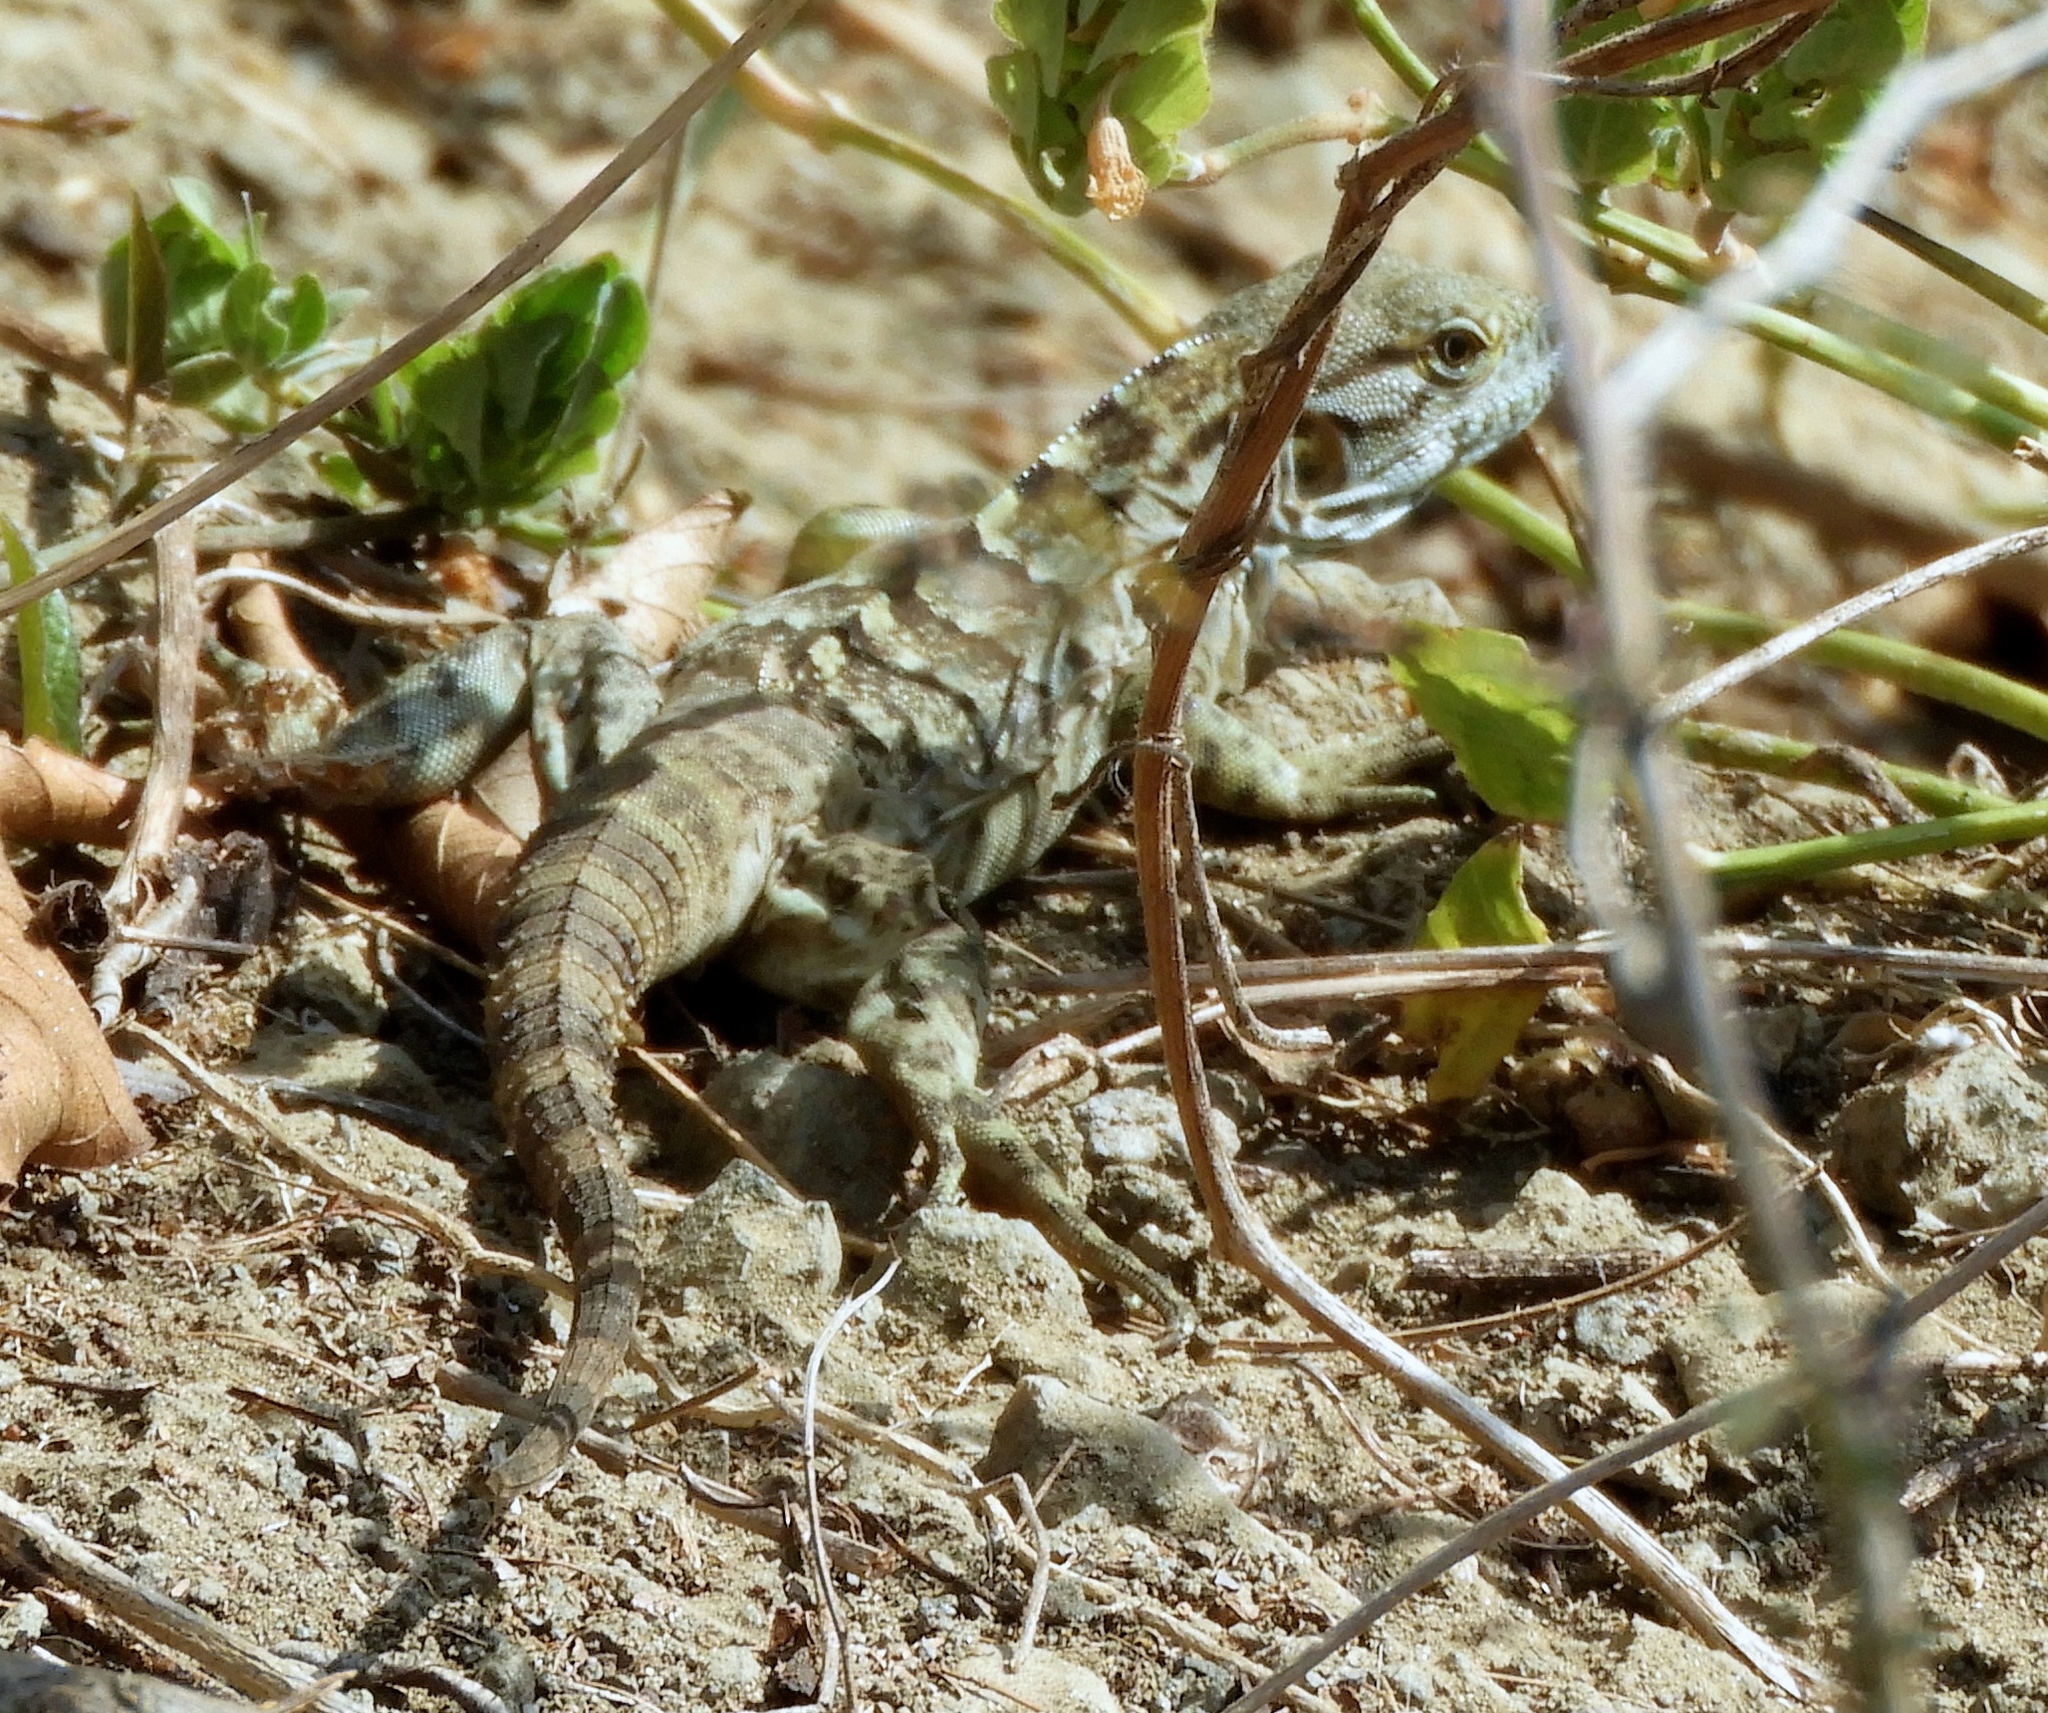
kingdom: Animalia
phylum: Chordata
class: Squamata
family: Iguanidae
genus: Ctenosaura
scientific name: Ctenosaura pectinata
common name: Guerreran spiny-tailed iguana
